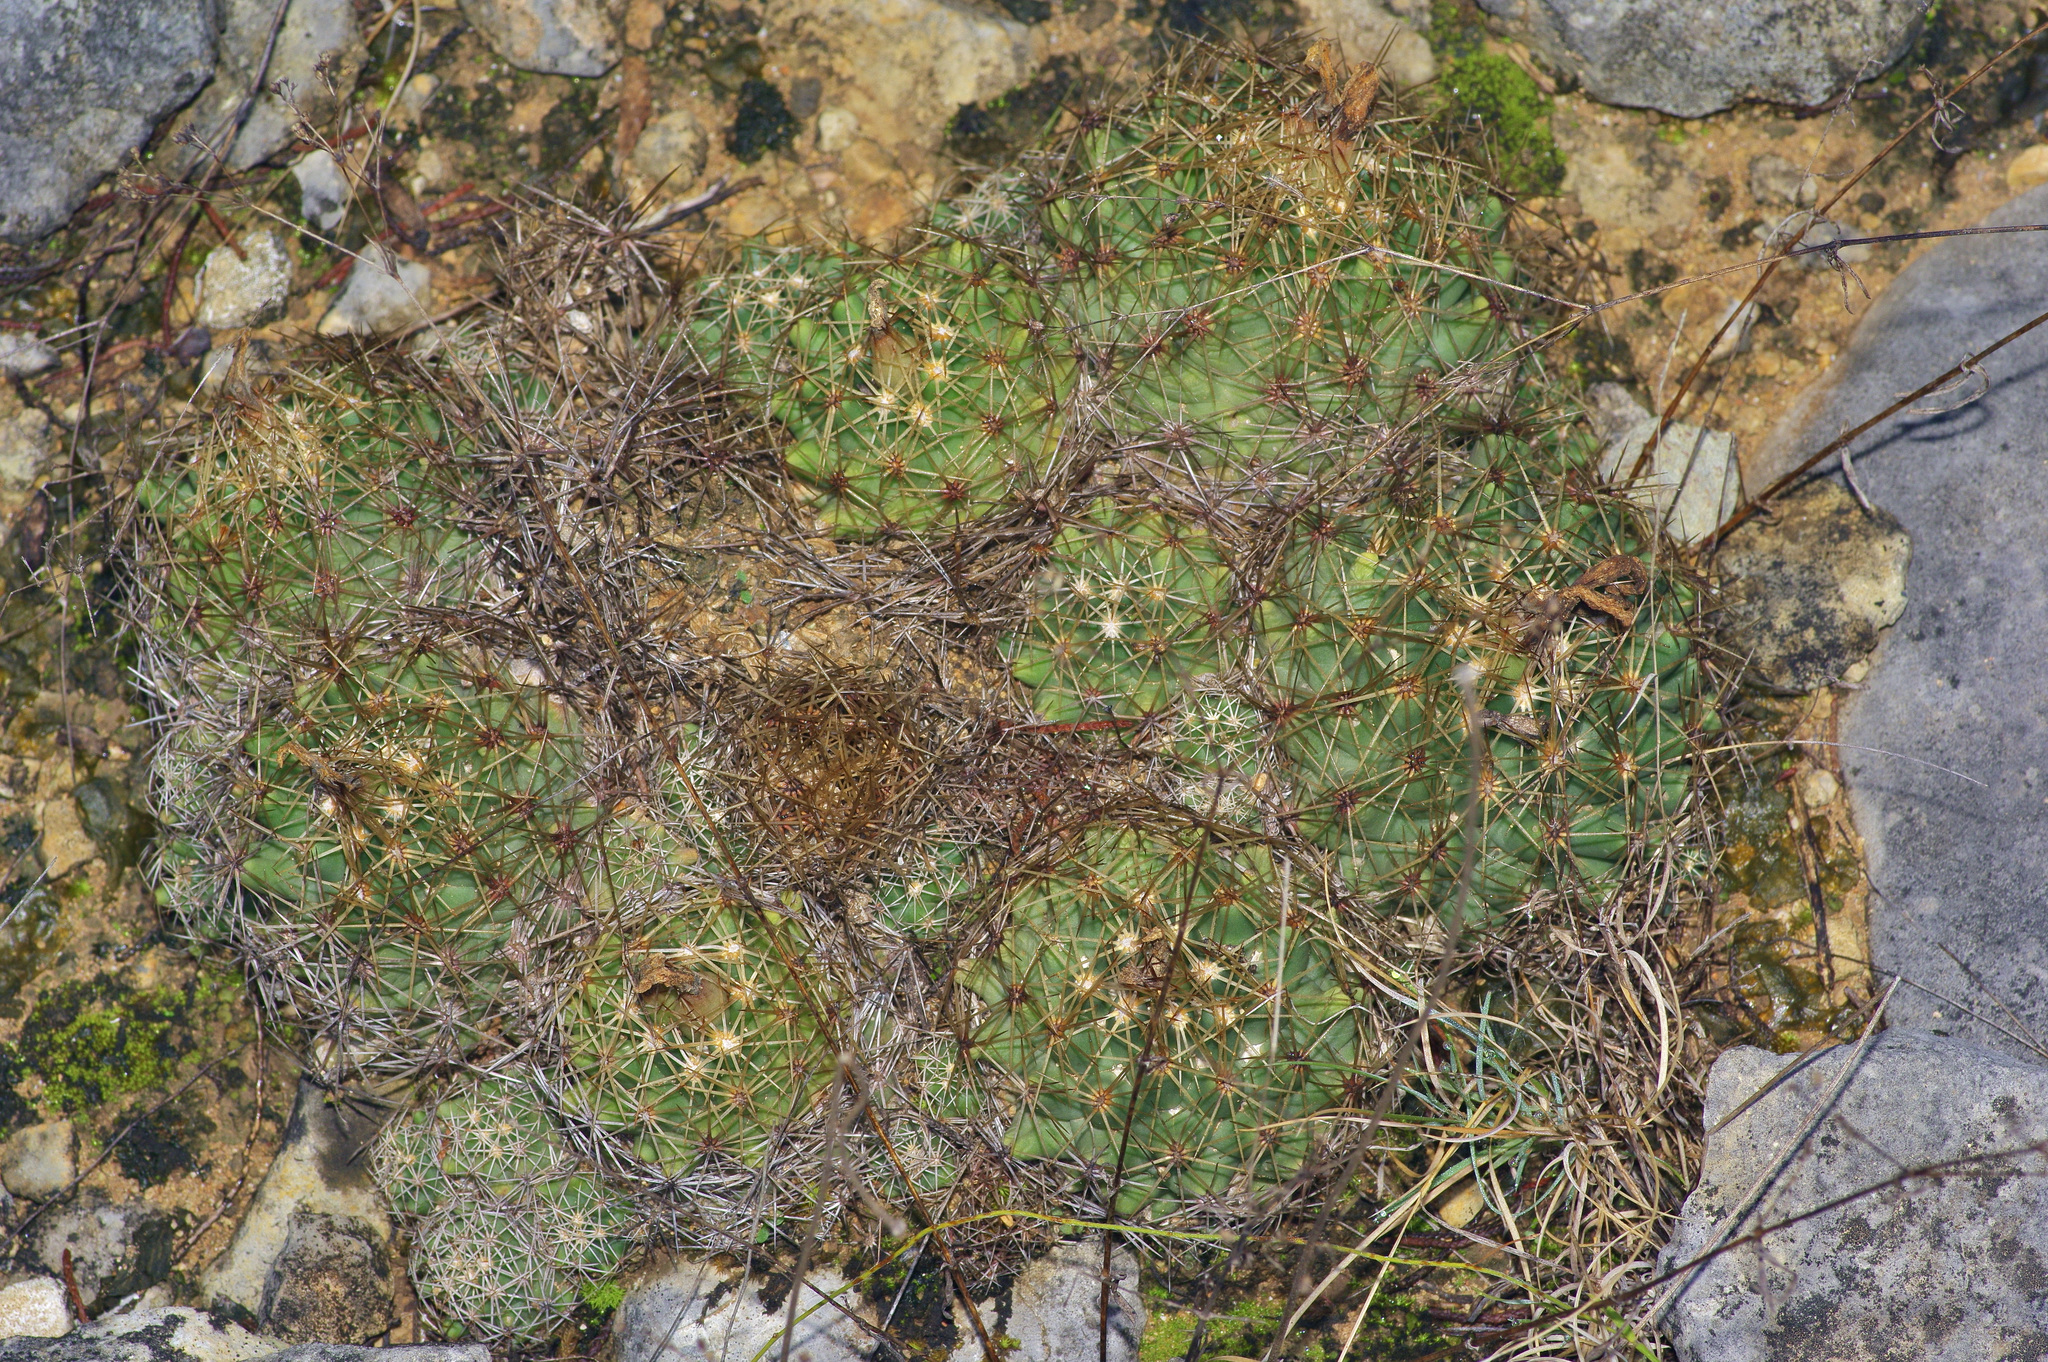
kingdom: Plantae
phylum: Tracheophyta
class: Magnoliopsida
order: Caryophyllales
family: Cactaceae
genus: Coryphantha
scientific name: Coryphantha sulcata
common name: Finger cactus
